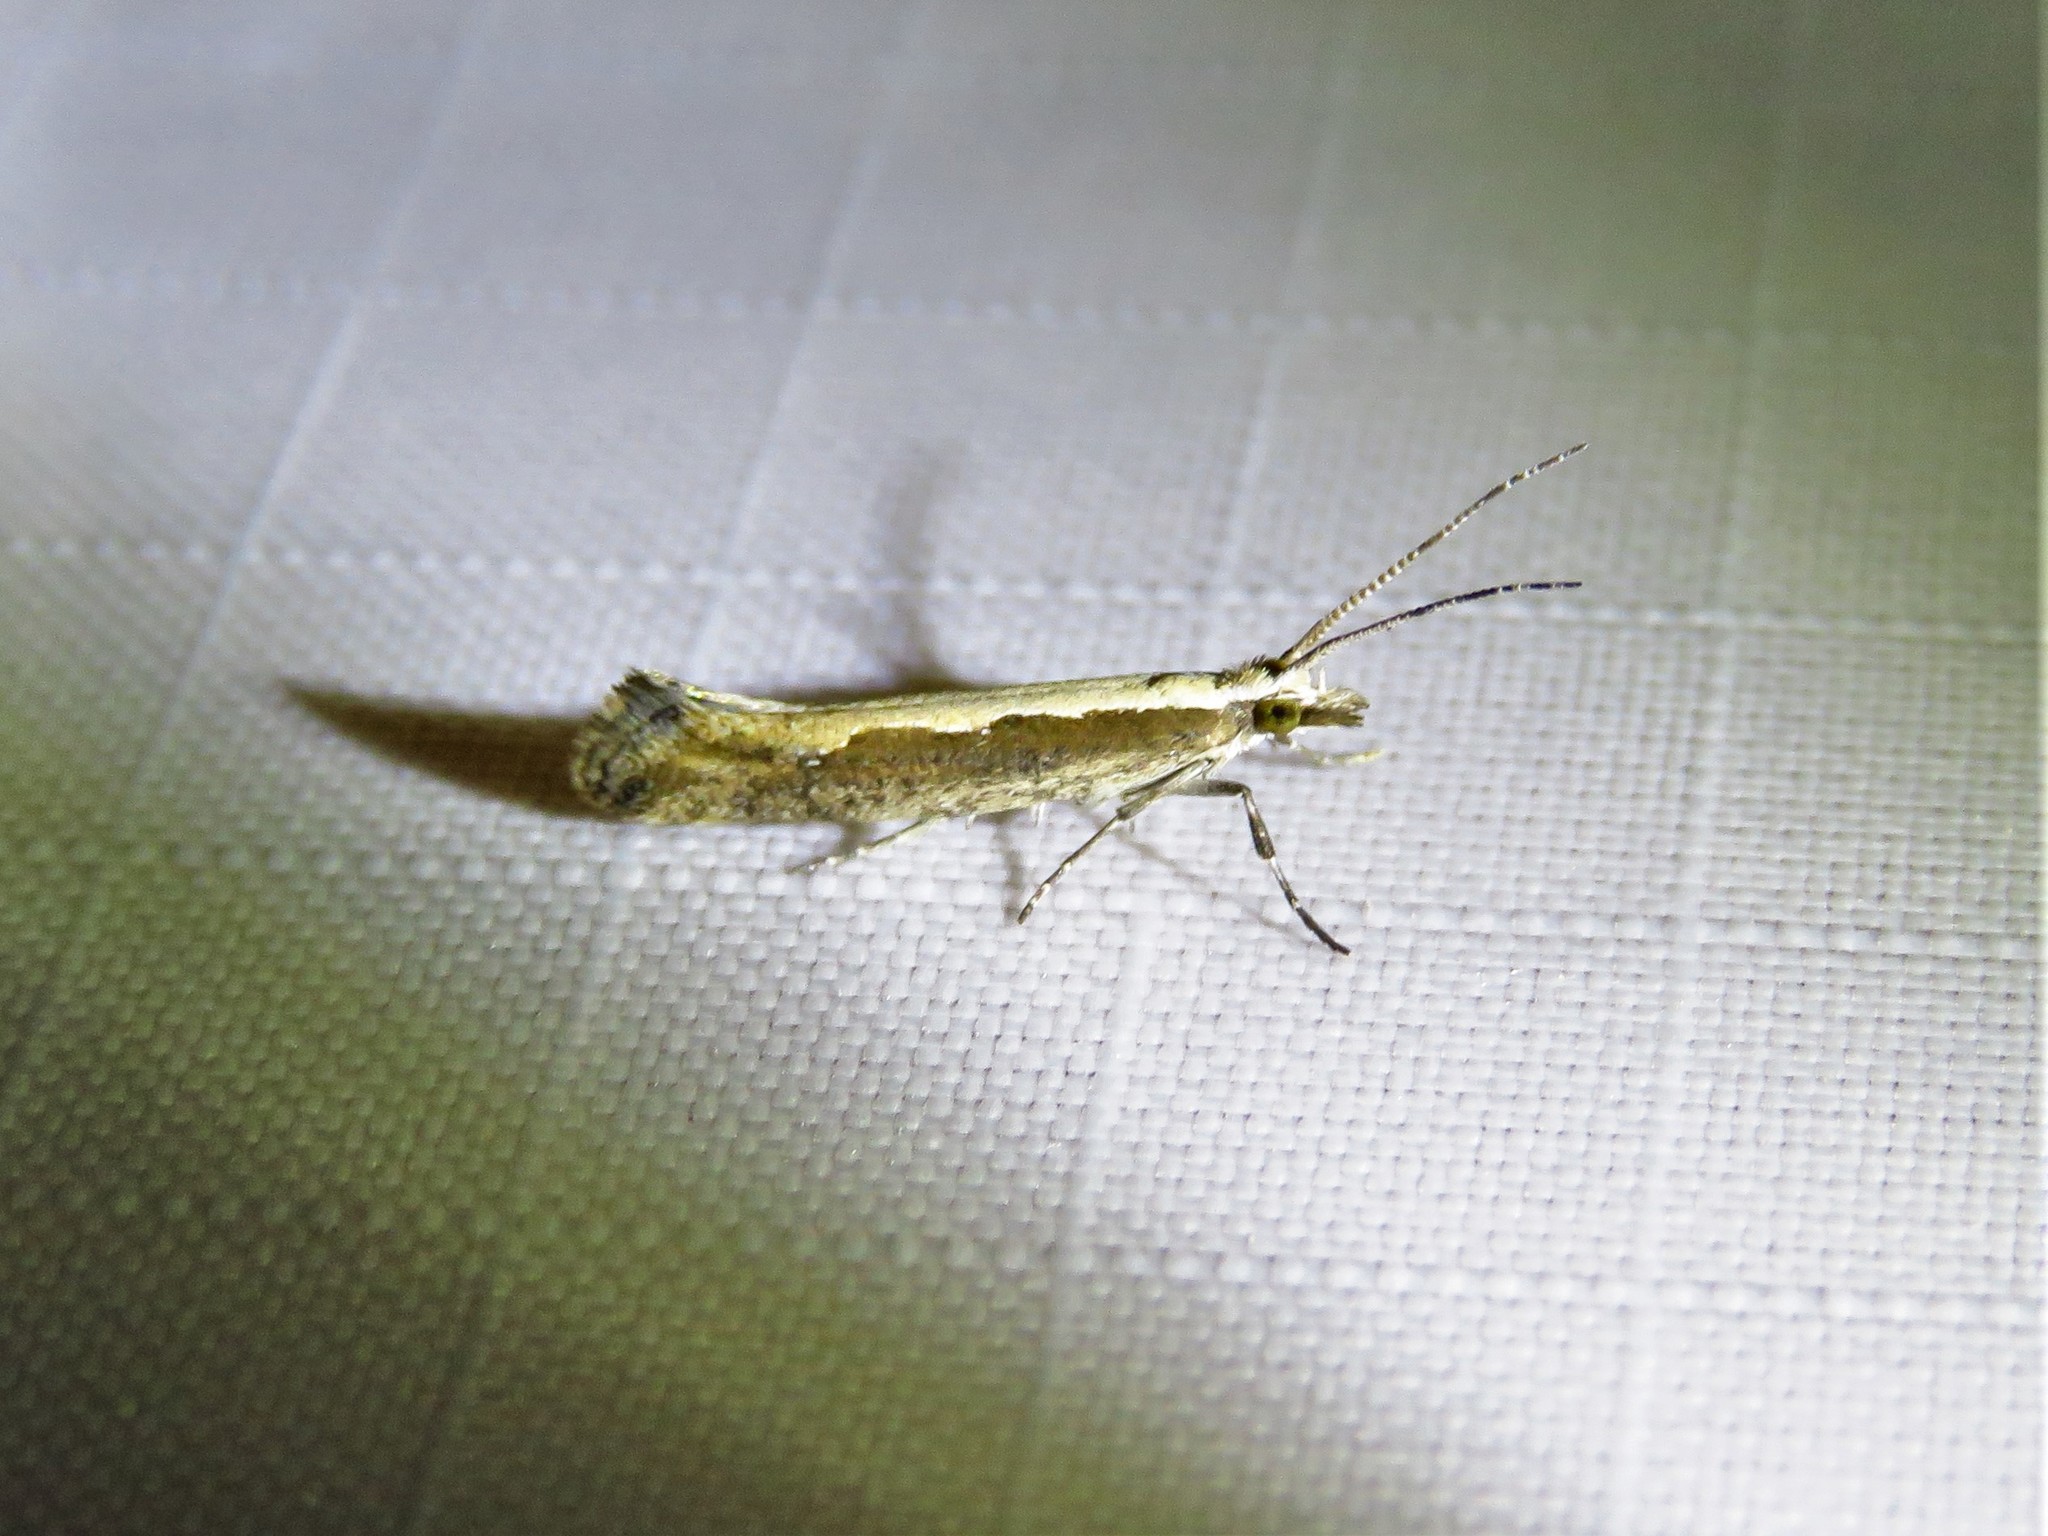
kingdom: Animalia
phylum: Arthropoda
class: Insecta
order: Lepidoptera
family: Plutellidae
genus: Plutella
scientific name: Plutella xylostella
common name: Diamond-back moth
